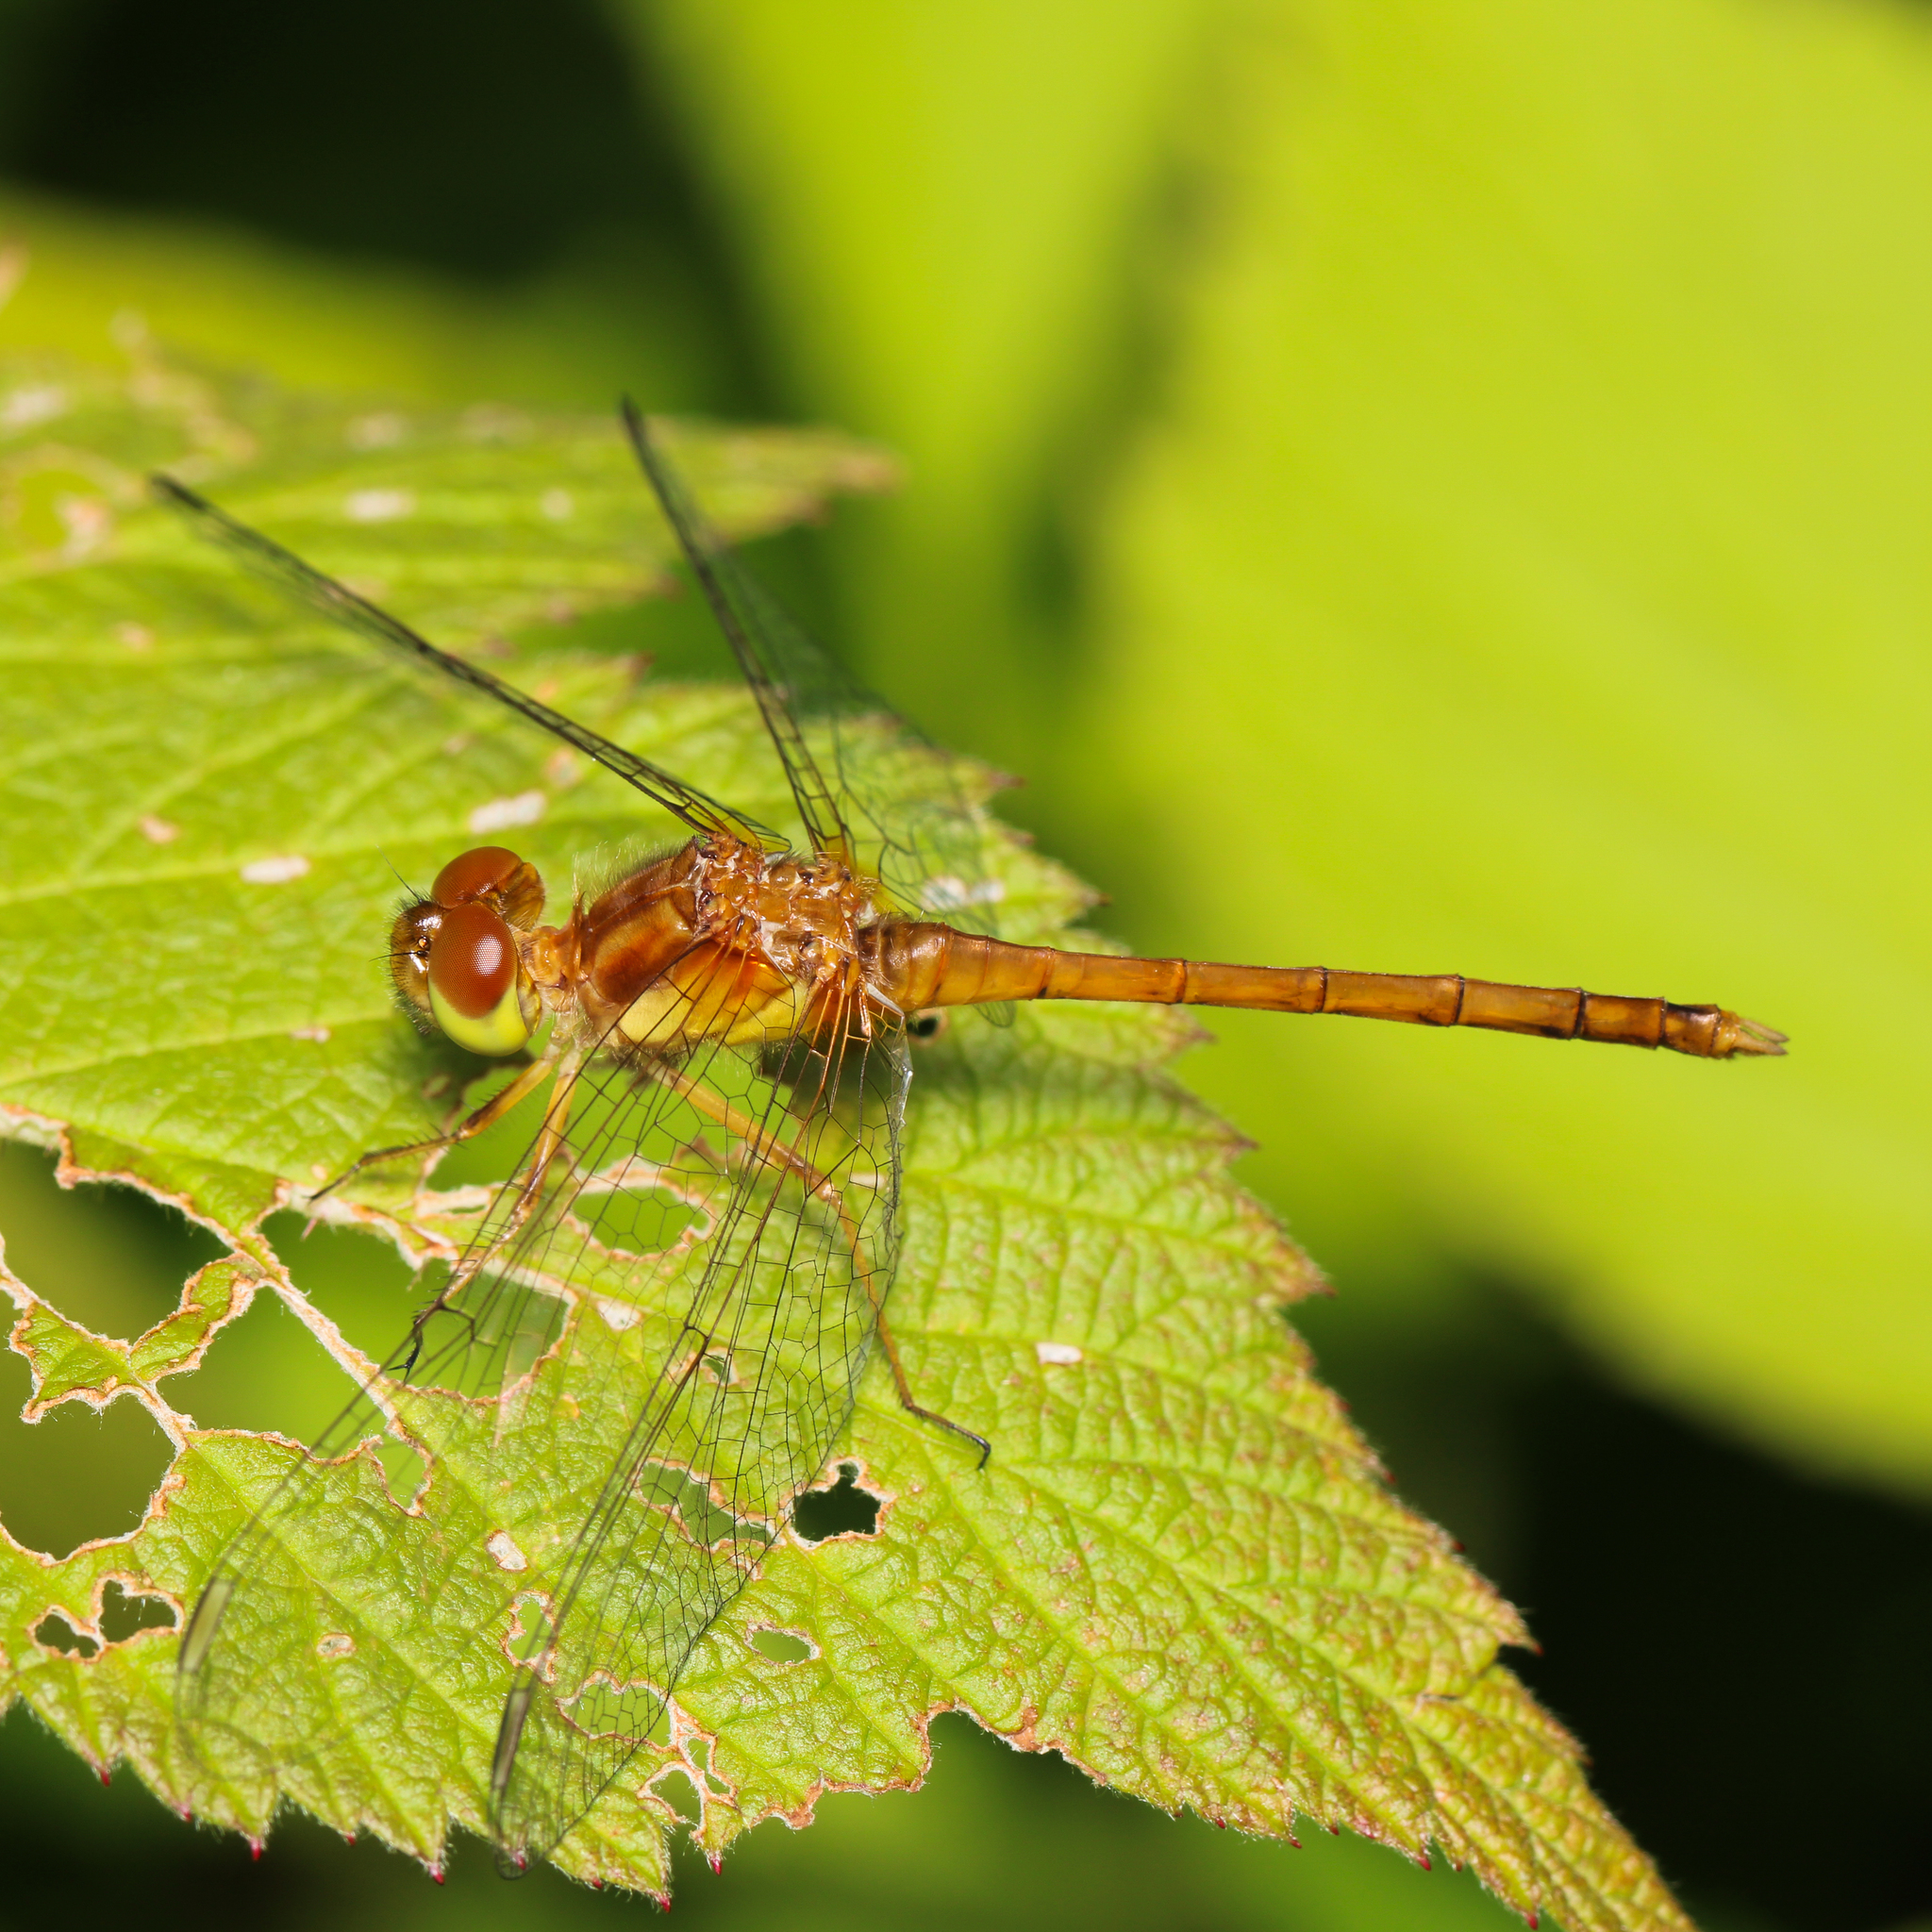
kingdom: Animalia
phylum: Arthropoda
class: Insecta
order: Odonata
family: Libellulidae
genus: Sympetrum
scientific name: Sympetrum vicinum
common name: Autumn meadowhawk
